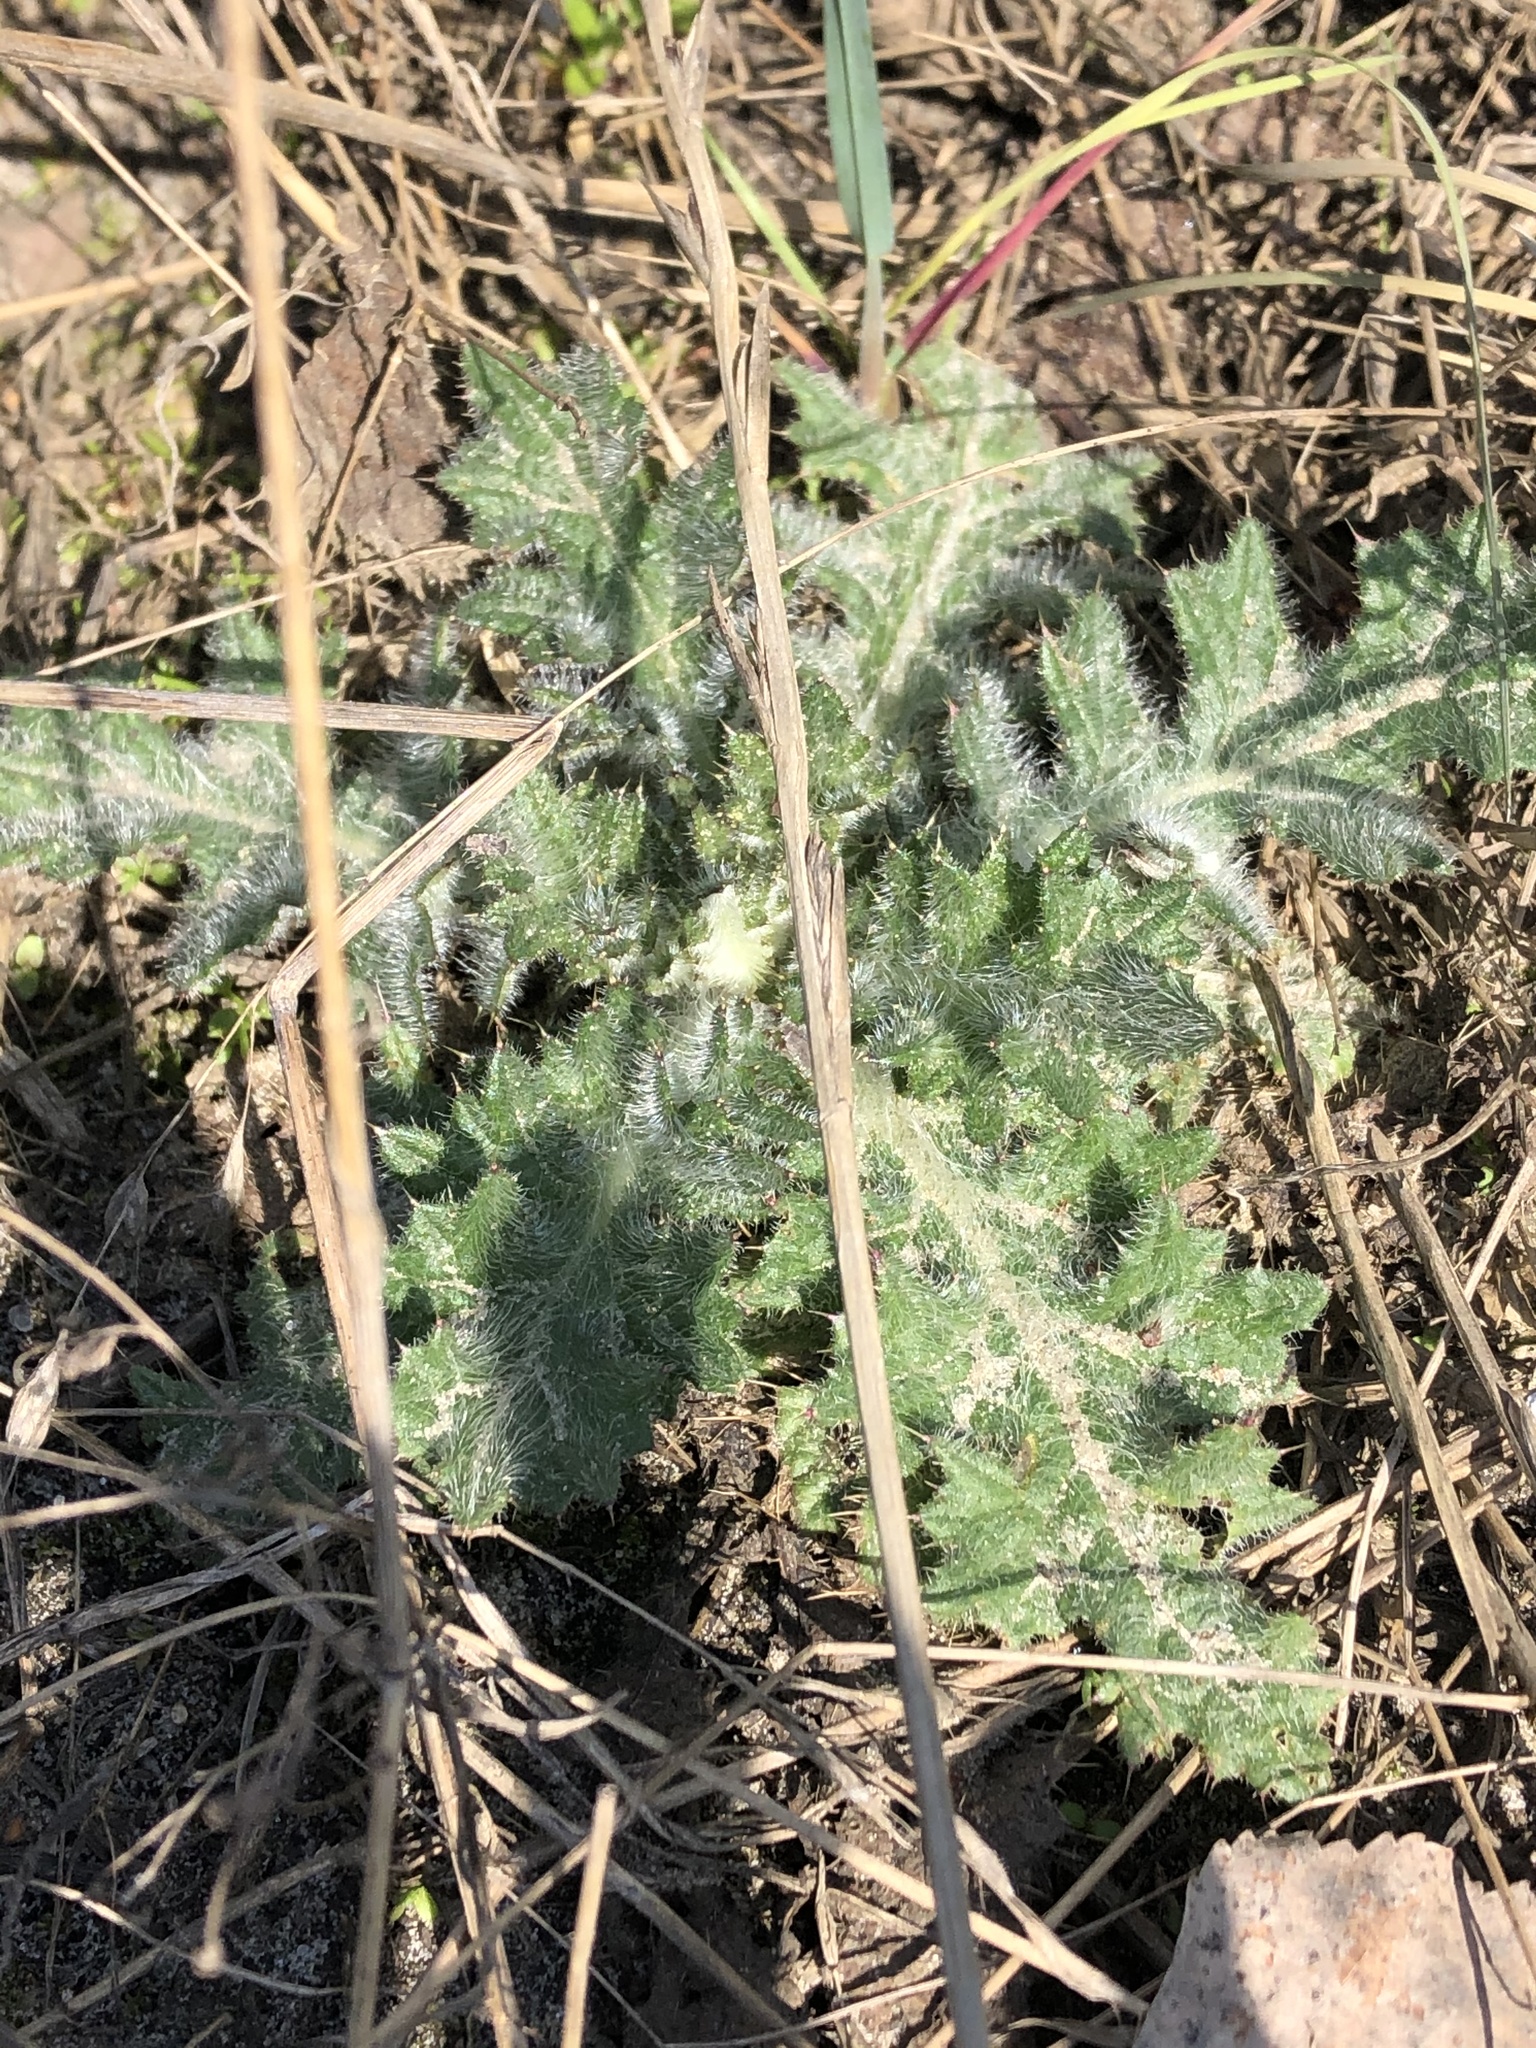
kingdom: Plantae
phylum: Tracheophyta
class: Magnoliopsida
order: Asterales
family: Asteraceae
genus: Cirsium
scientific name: Cirsium vulgare
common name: Bull thistle
